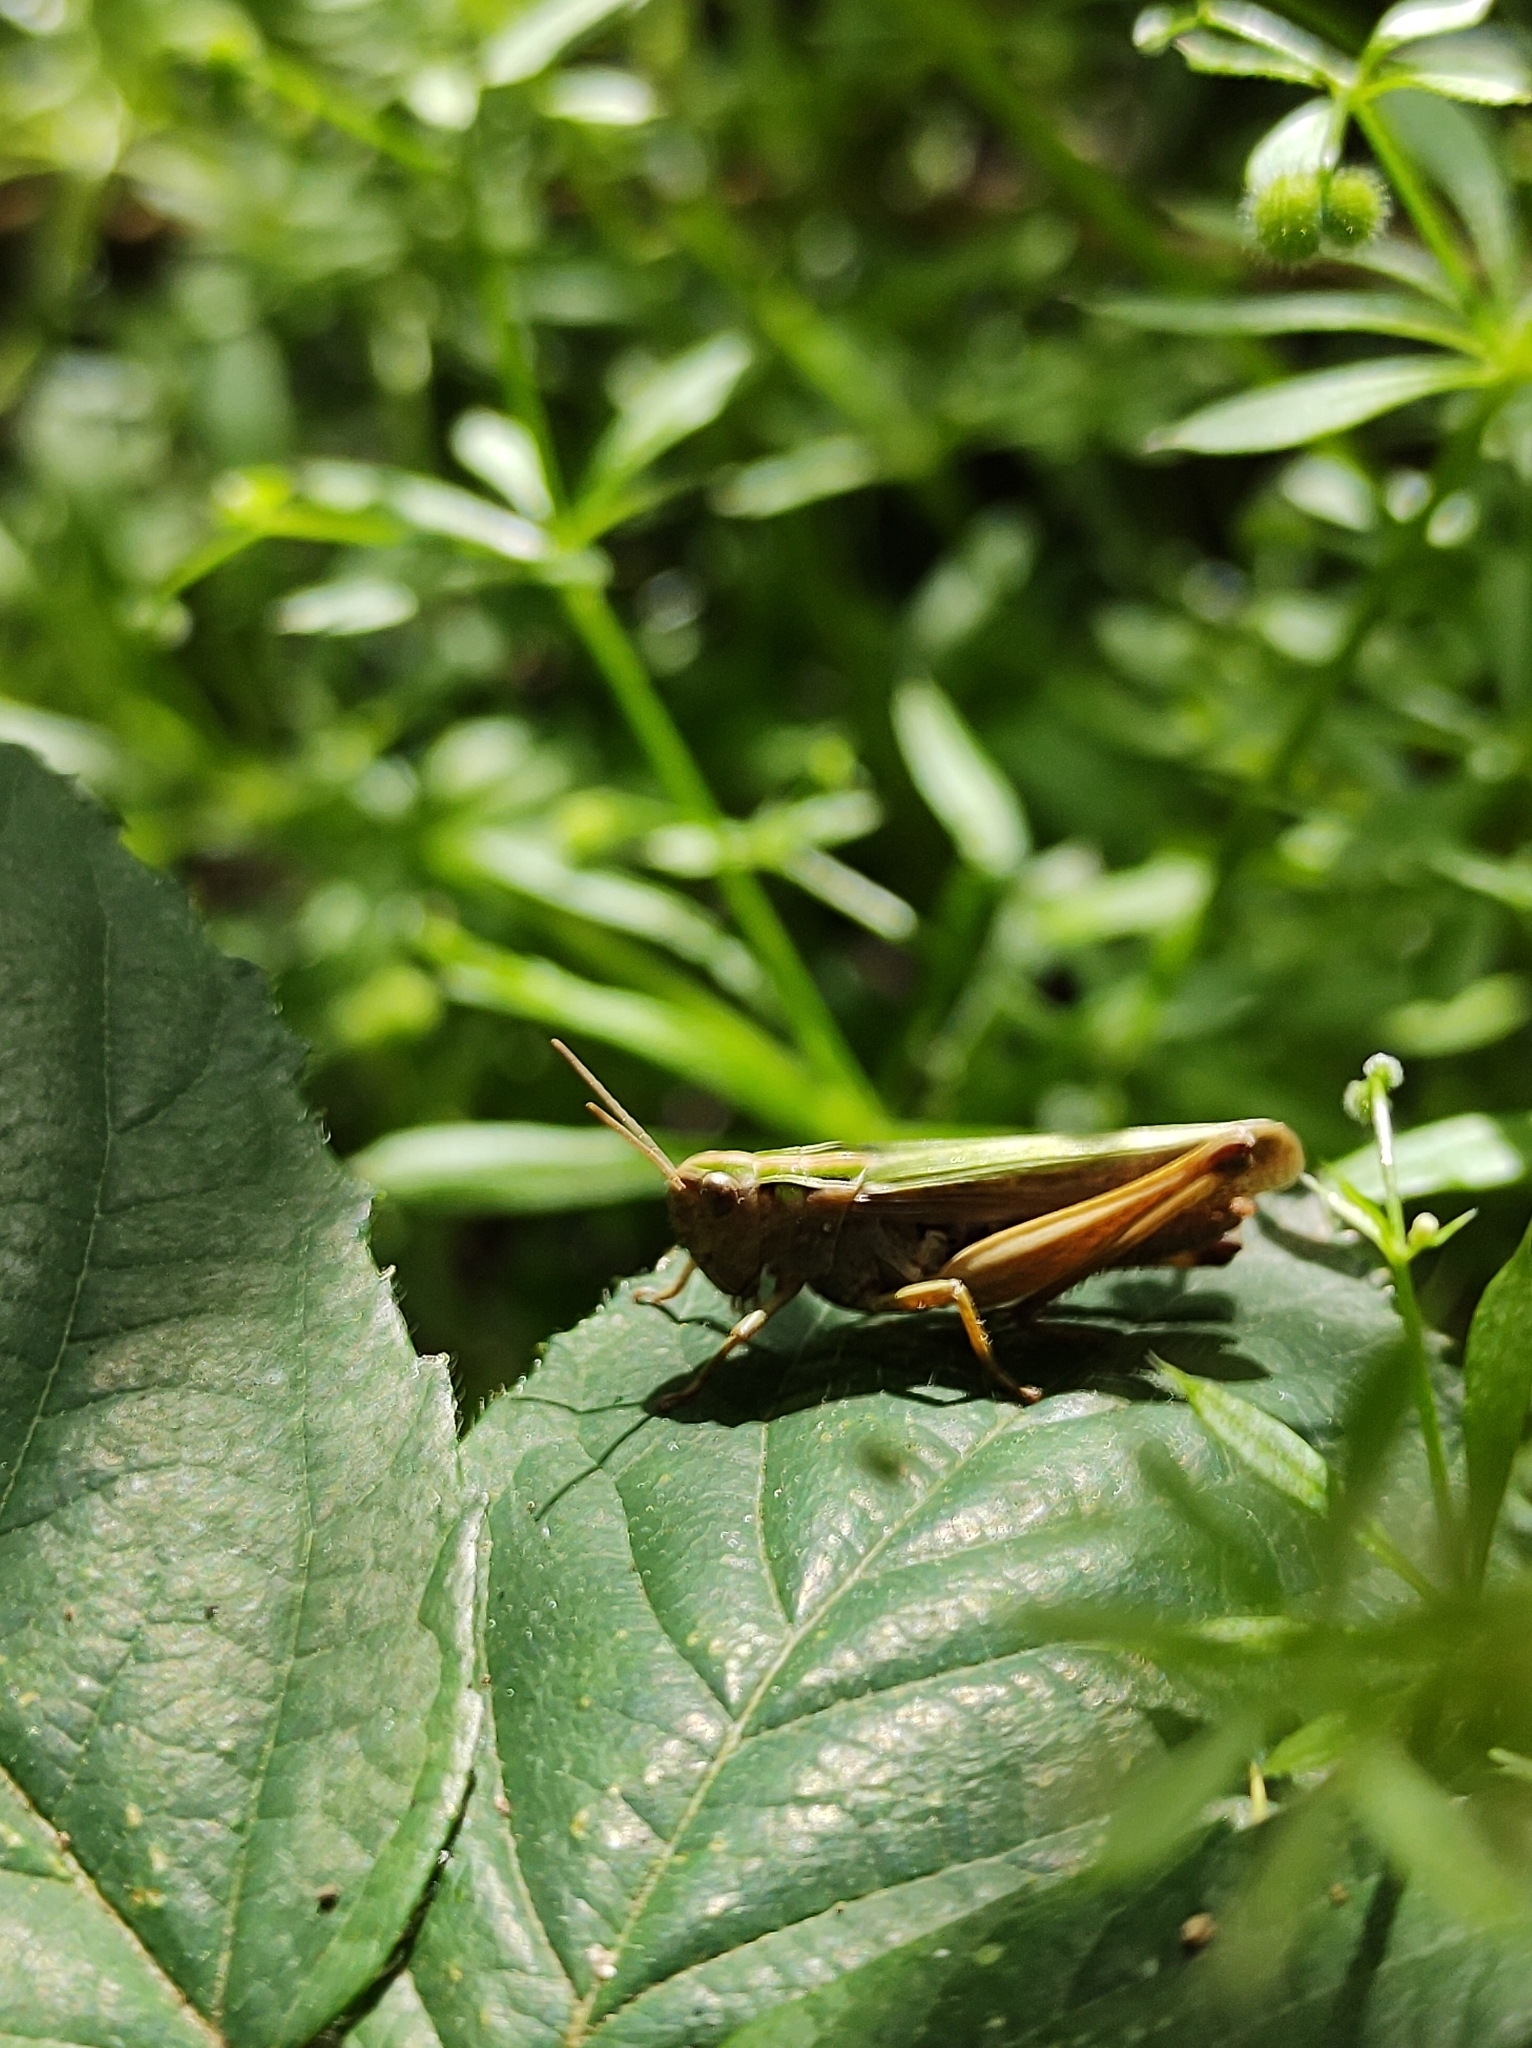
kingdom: Animalia
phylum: Arthropoda
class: Insecta
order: Orthoptera
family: Acrididae
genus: Omocestus
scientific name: Omocestus viridulus
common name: Common green grasshopper
